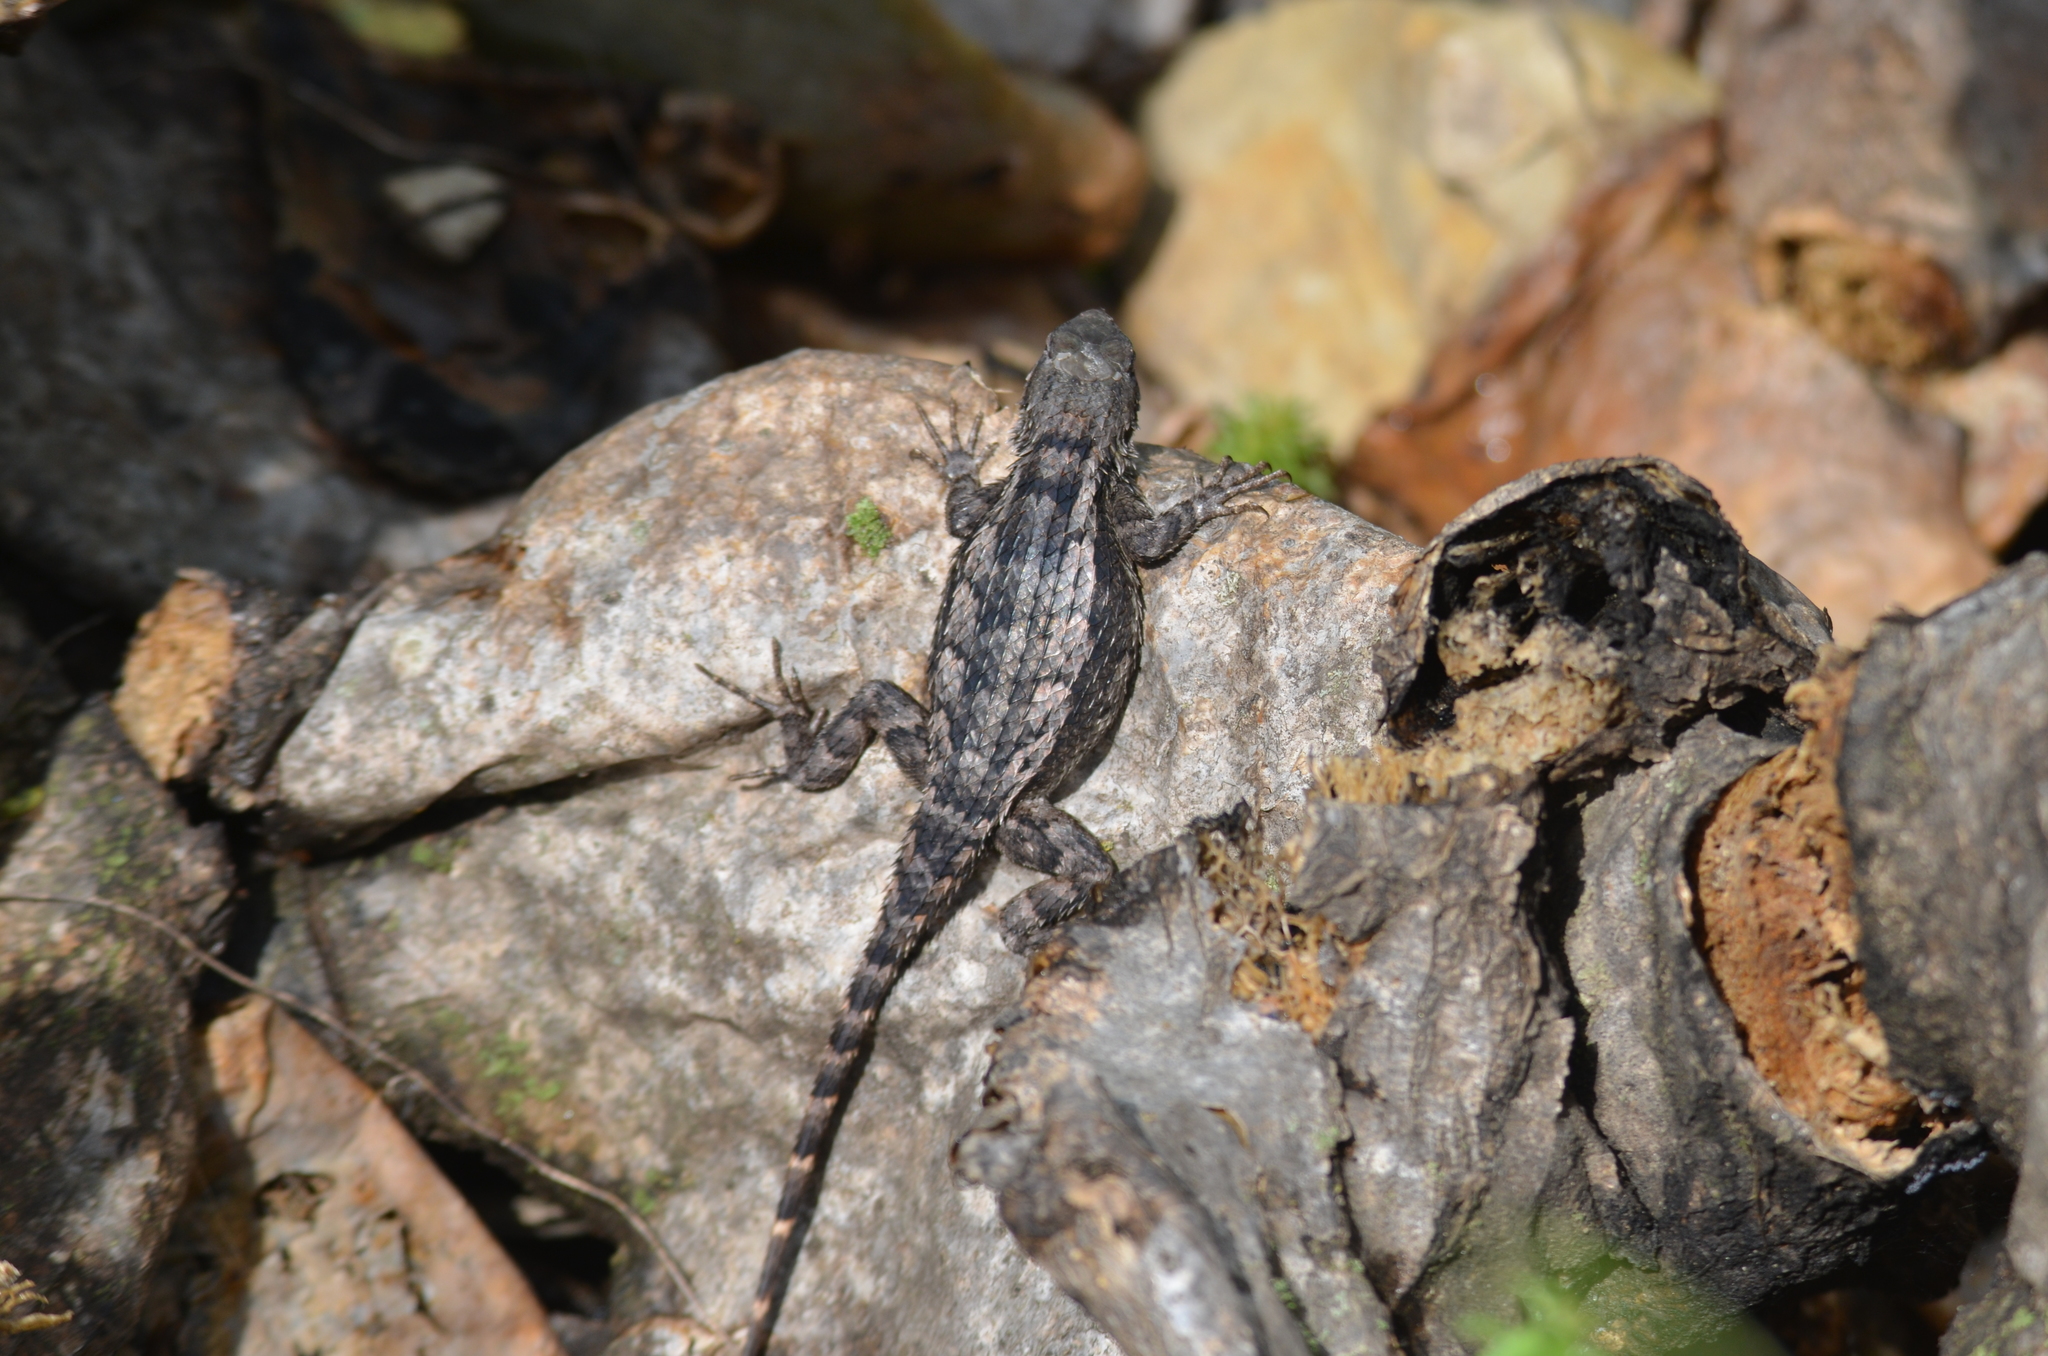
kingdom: Animalia
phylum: Chordata
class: Squamata
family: Phrynosomatidae
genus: Sceloporus
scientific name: Sceloporus olivaceus
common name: Texas spiny lizard
